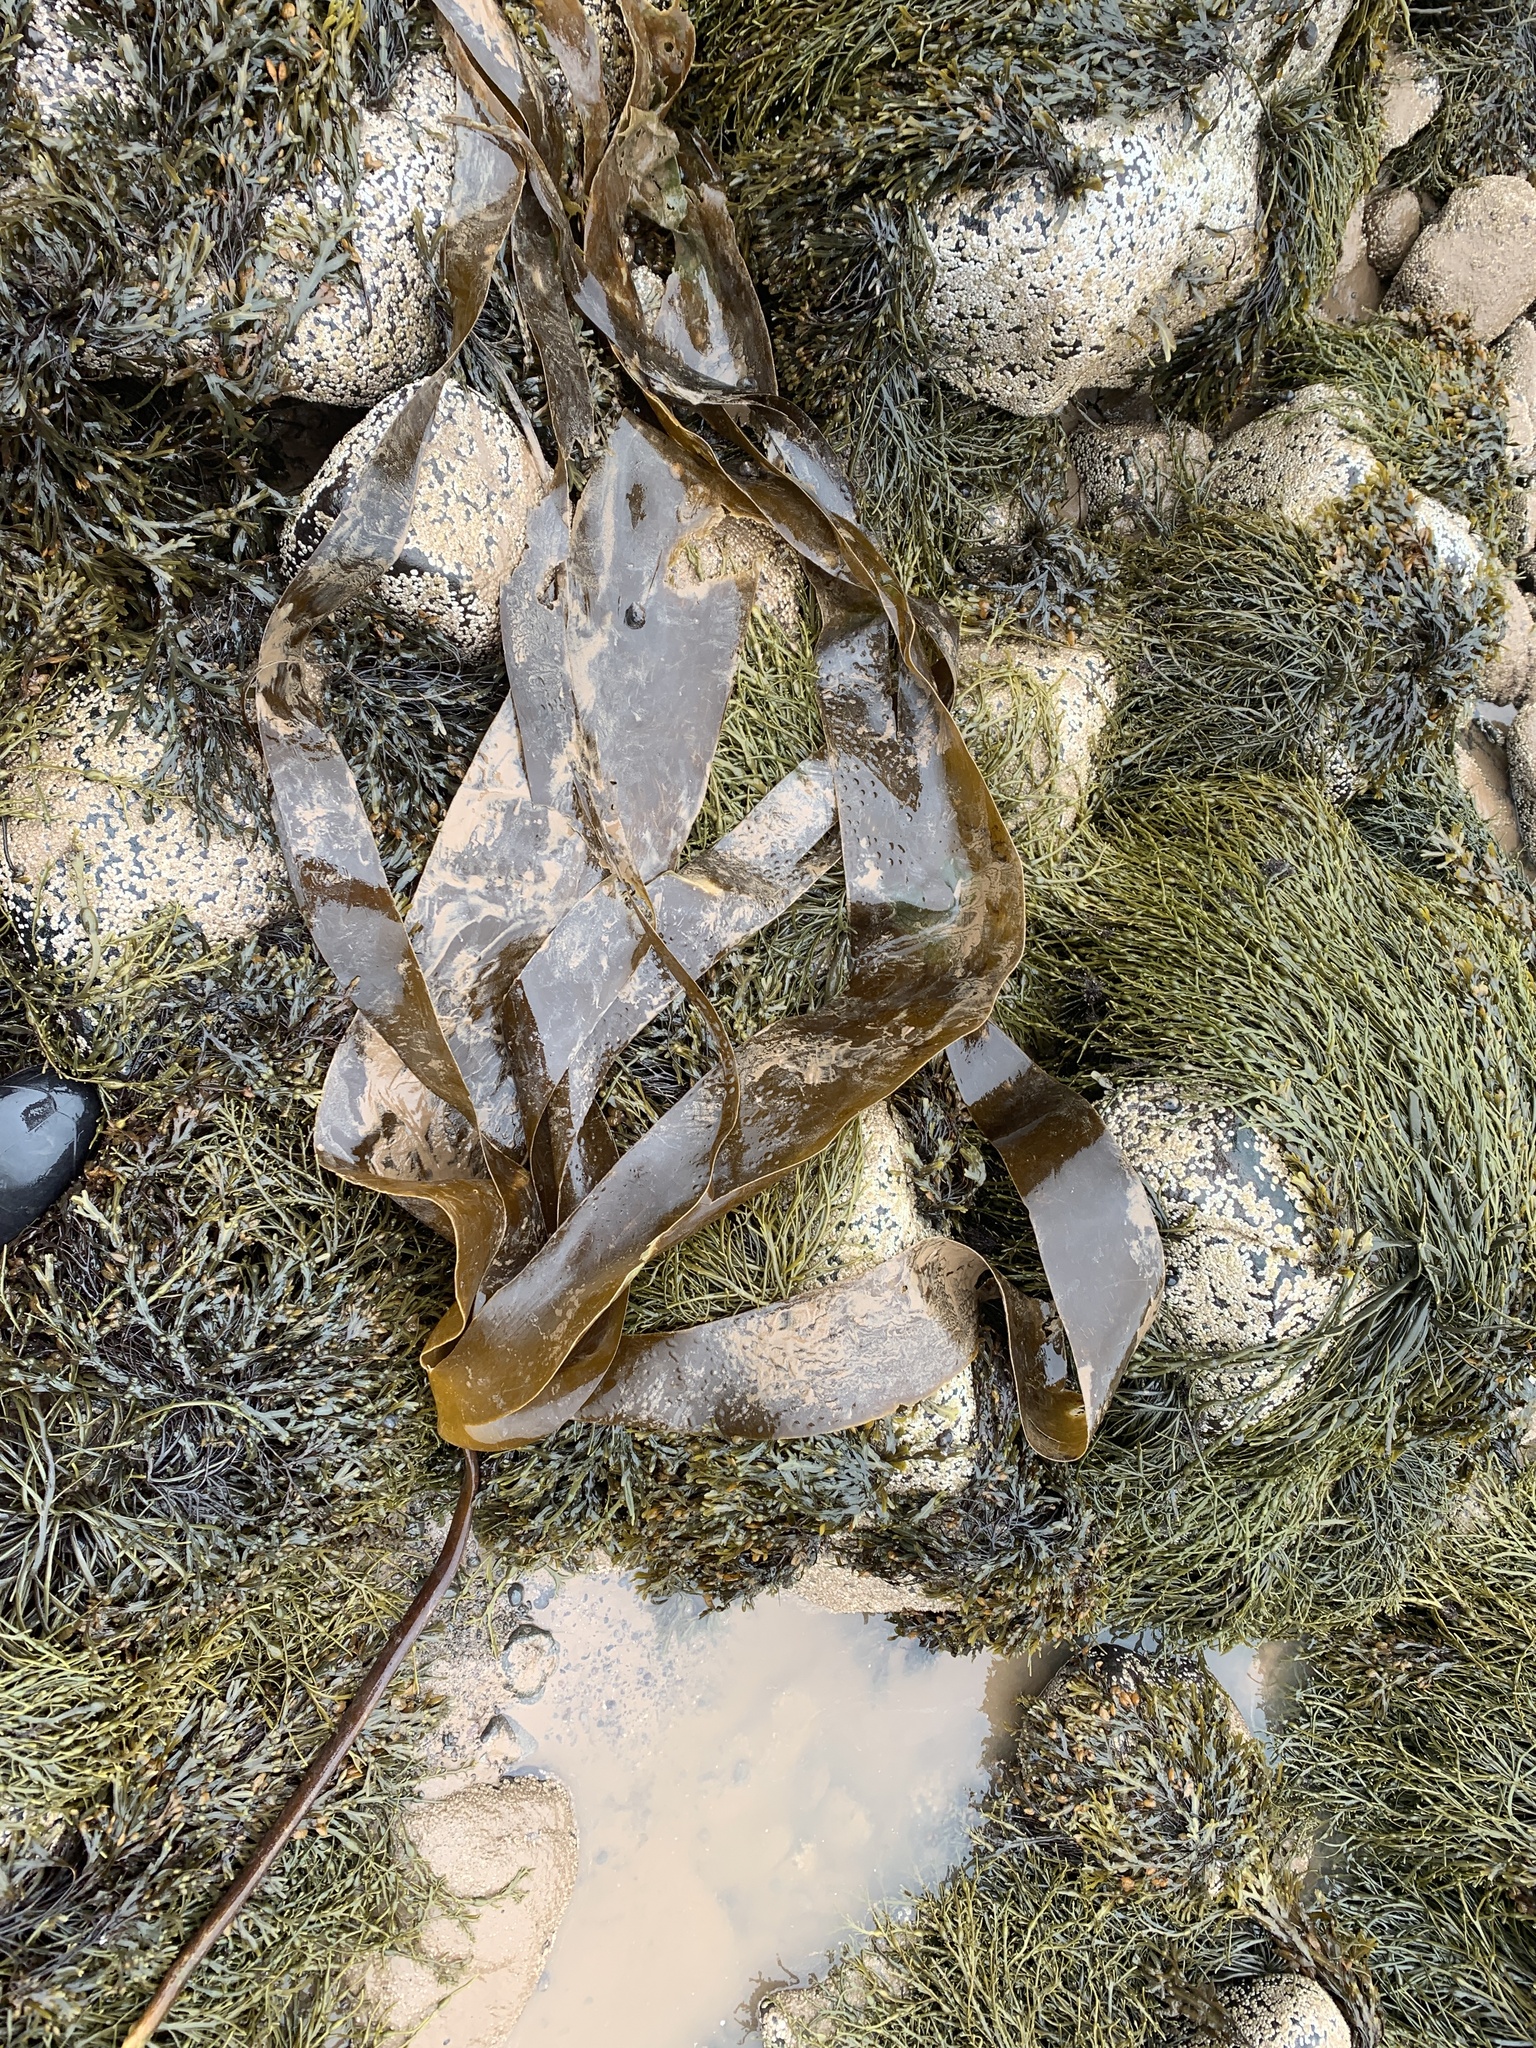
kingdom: Chromista
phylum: Ochrophyta
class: Phaeophyceae
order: Laminariales
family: Laminariaceae
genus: Laminaria
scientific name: Laminaria digitata
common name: Oarweed
